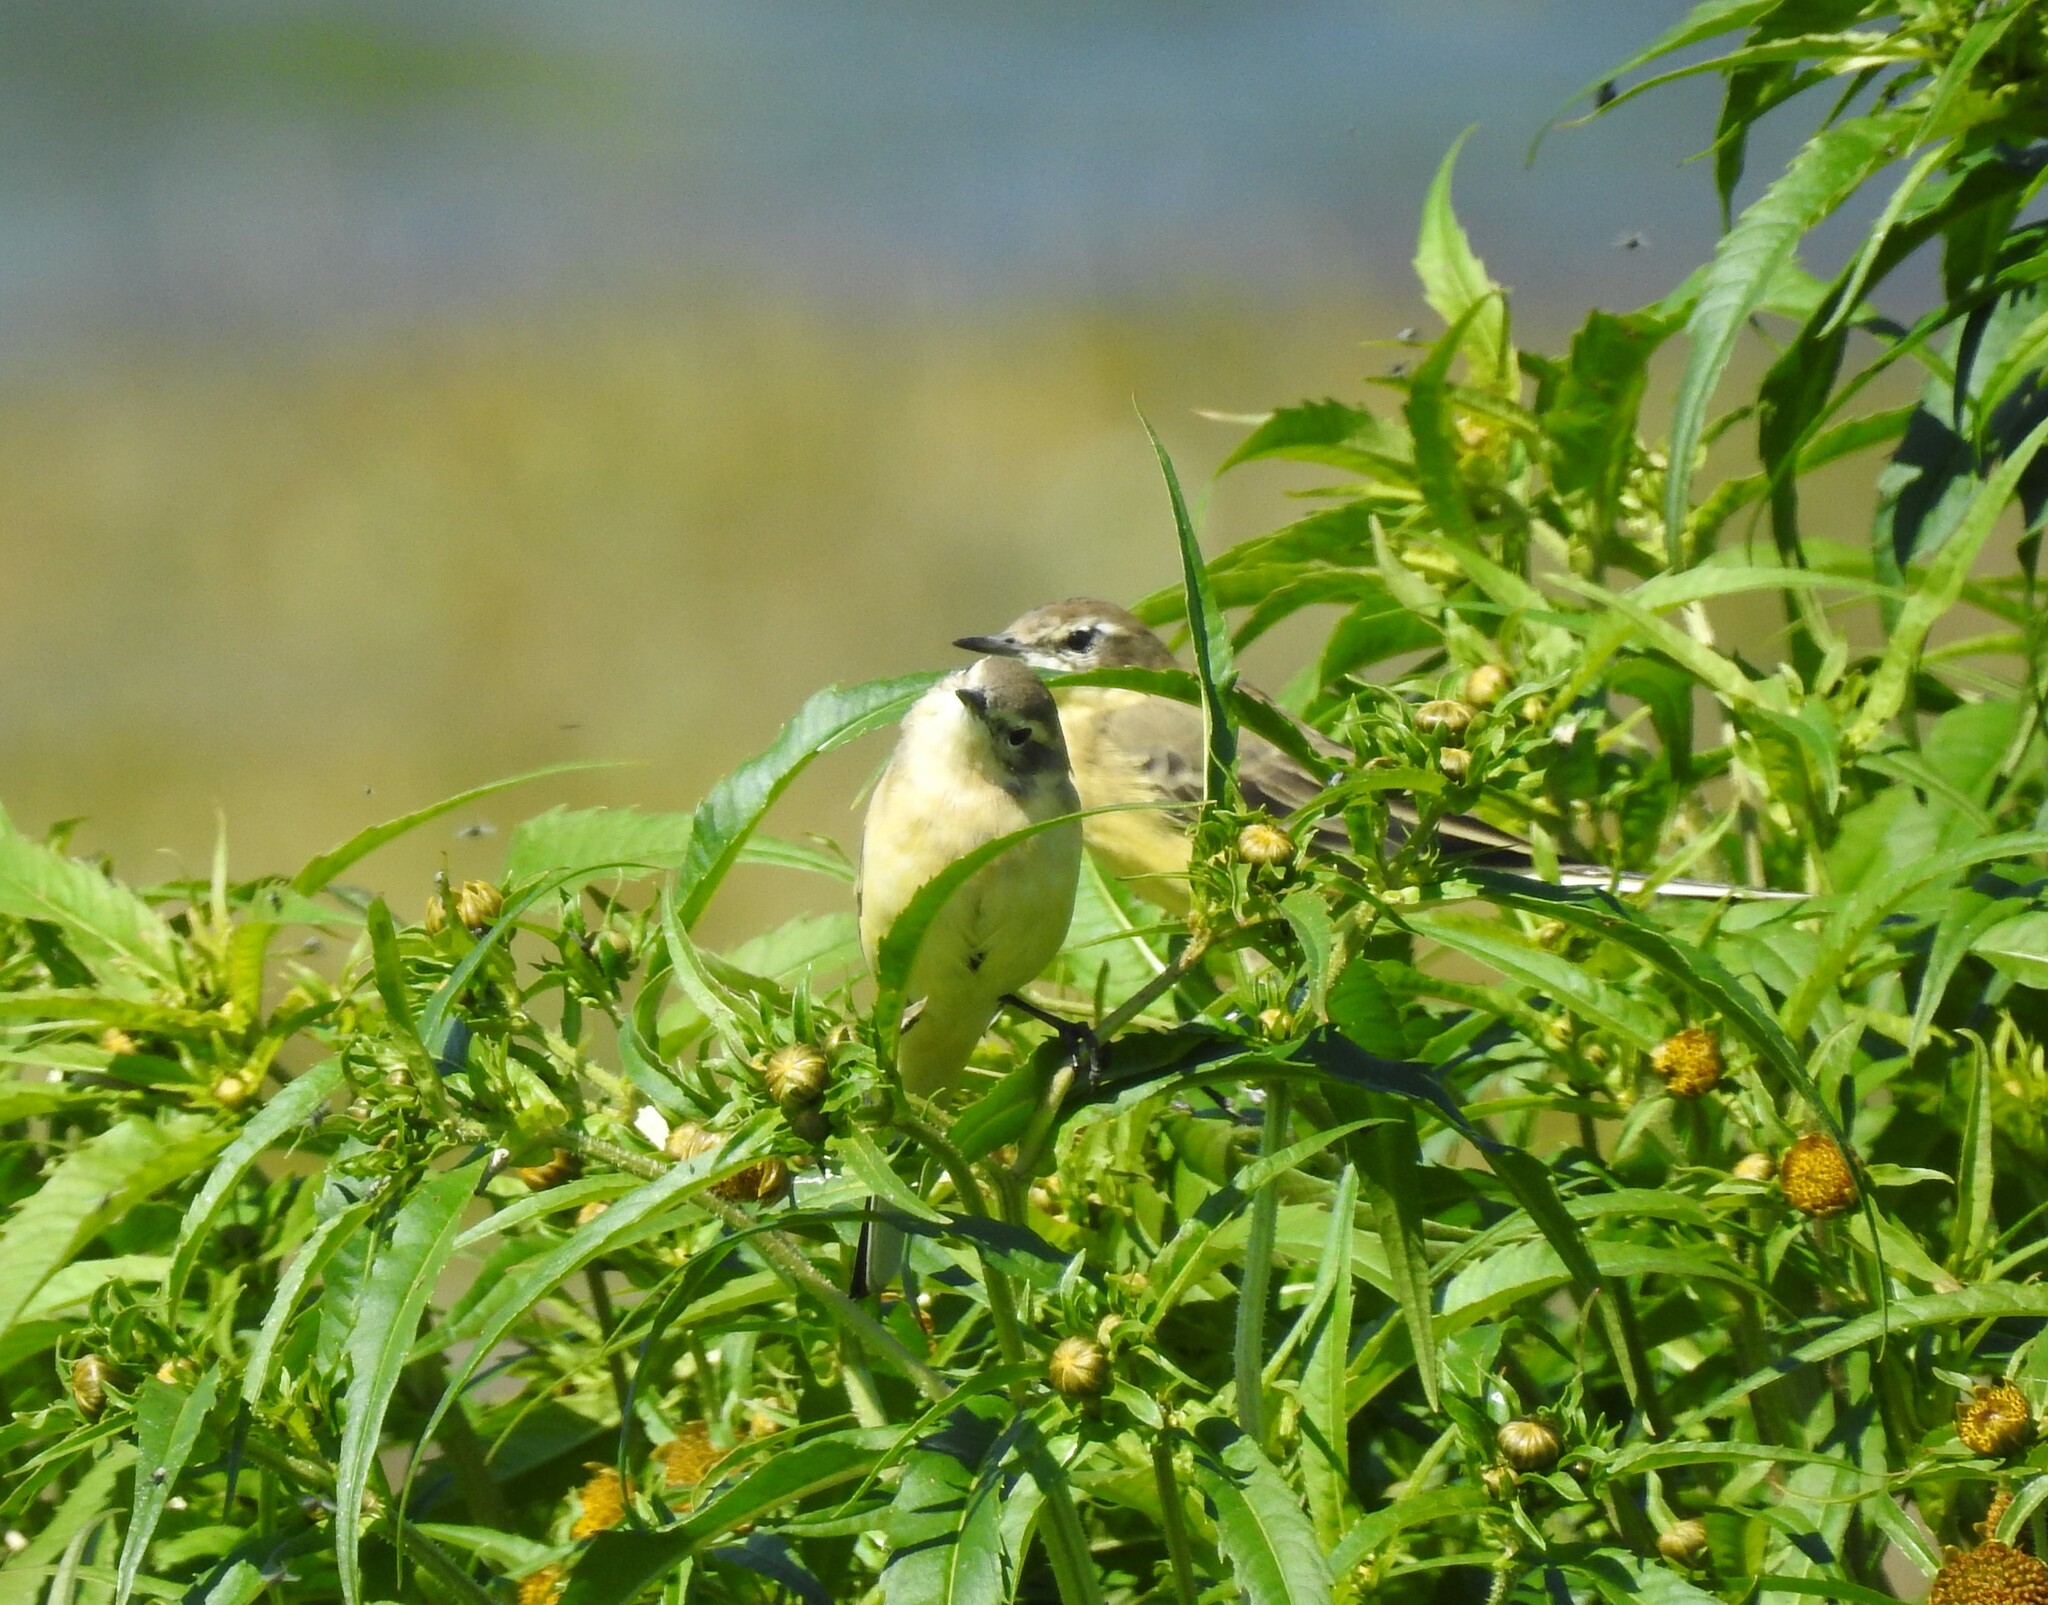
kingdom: Animalia
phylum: Chordata
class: Aves
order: Passeriformes
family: Motacillidae
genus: Motacilla
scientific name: Motacilla flava
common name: Western yellow wagtail
